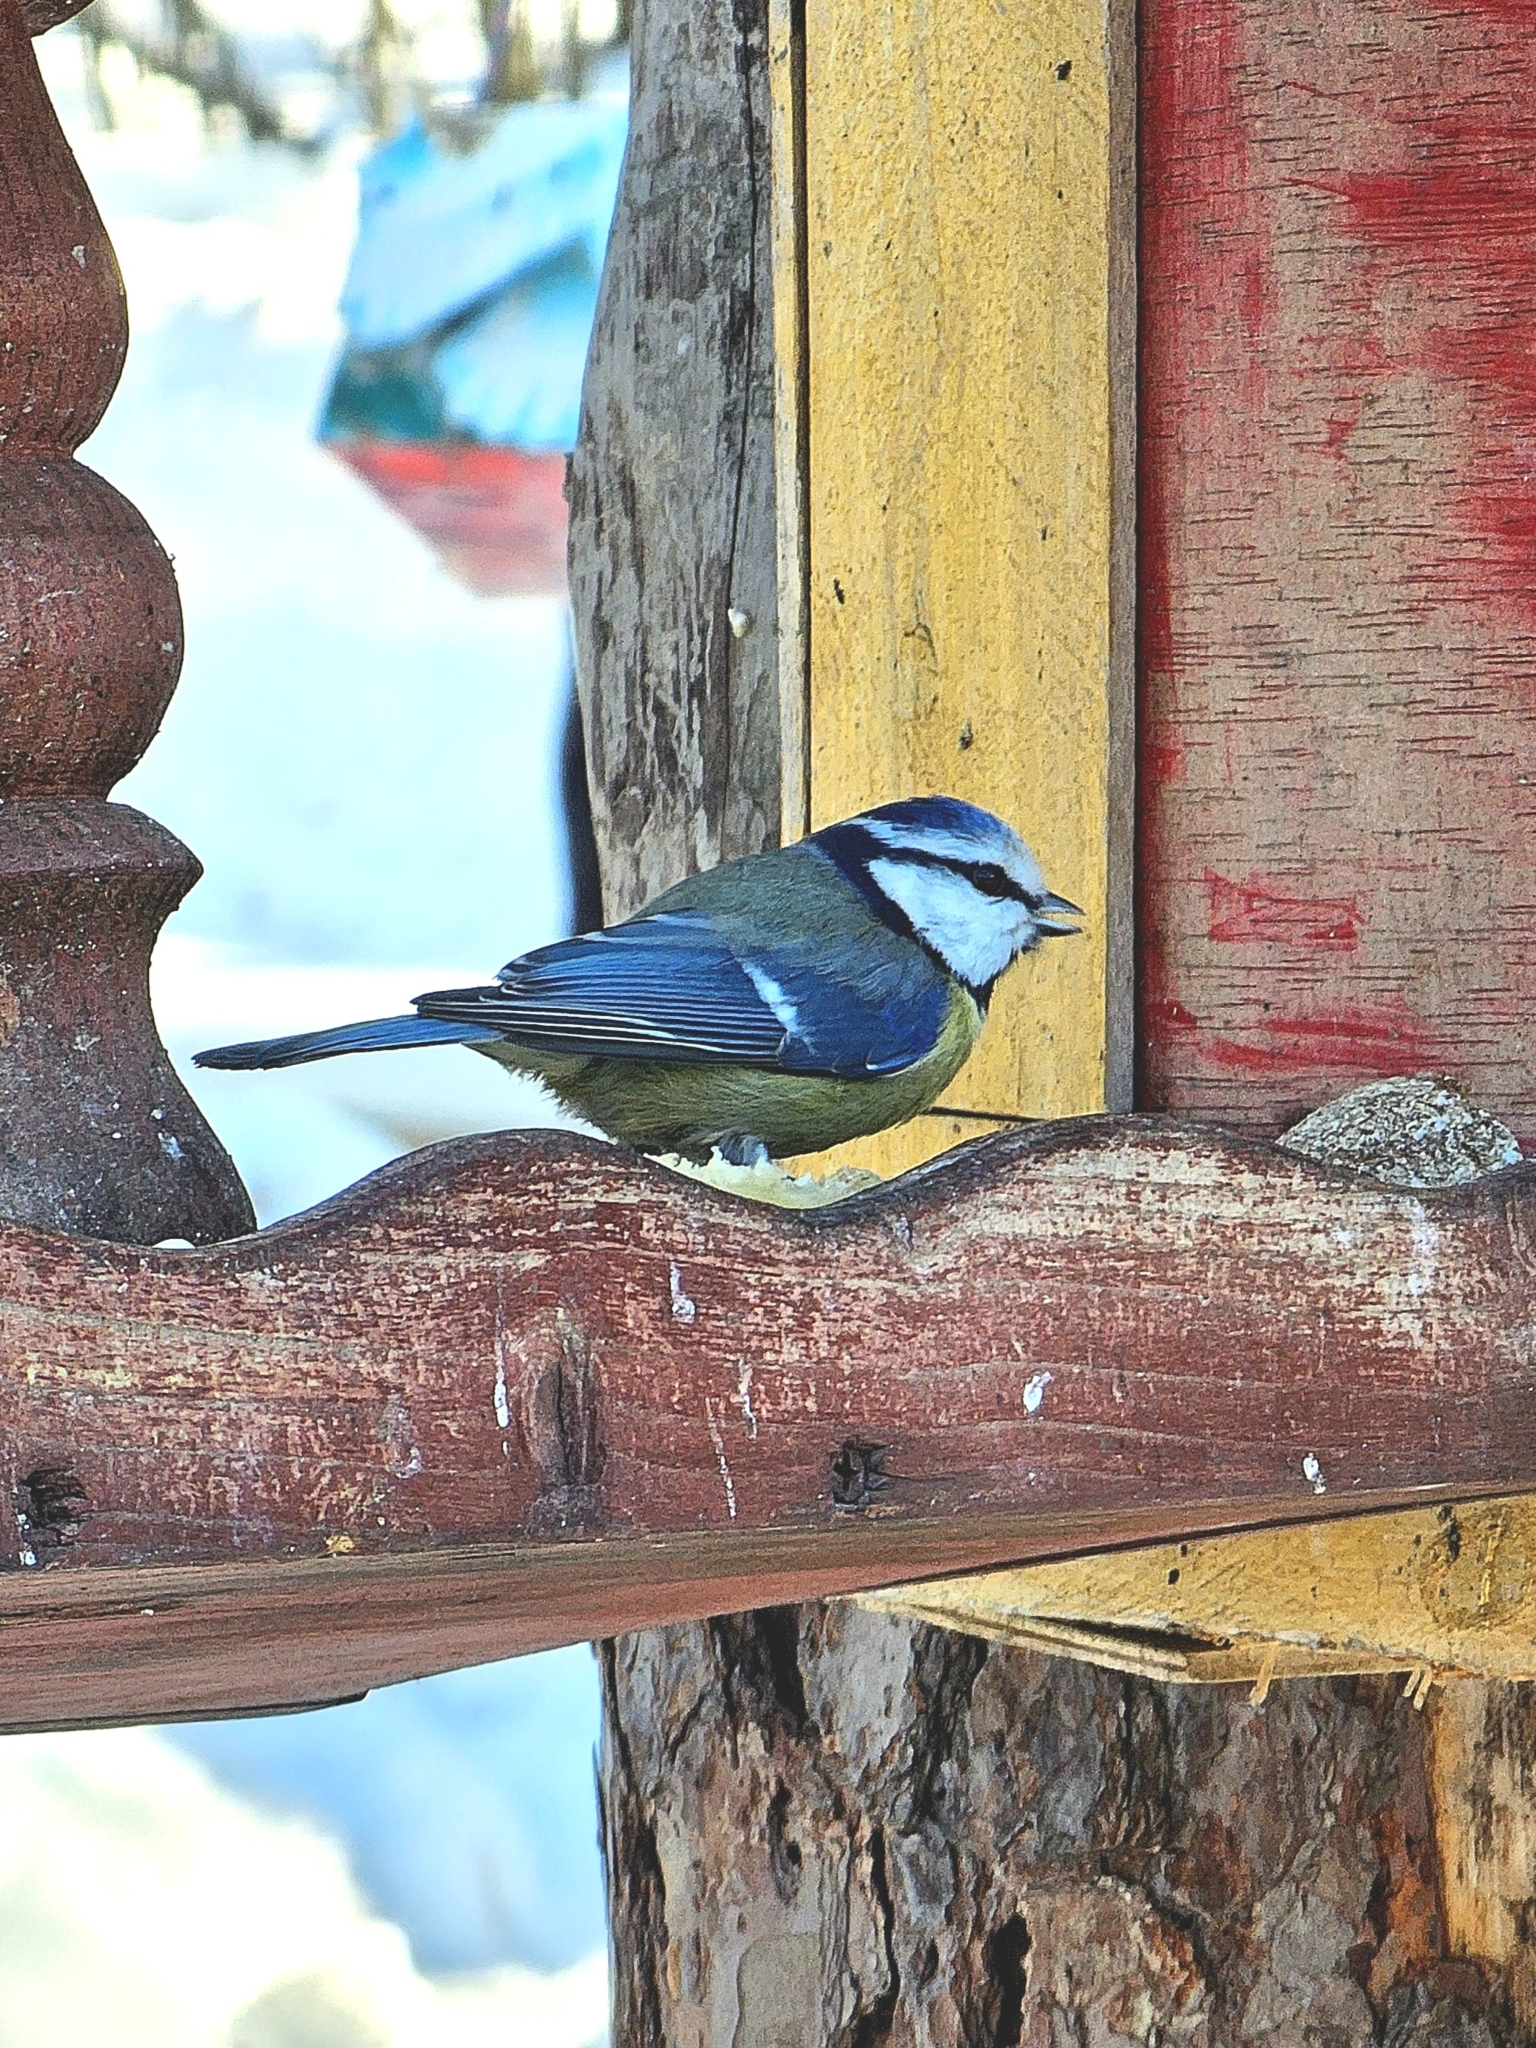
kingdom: Animalia
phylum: Chordata
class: Aves
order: Passeriformes
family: Paridae
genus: Cyanistes
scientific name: Cyanistes caeruleus
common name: Eurasian blue tit
